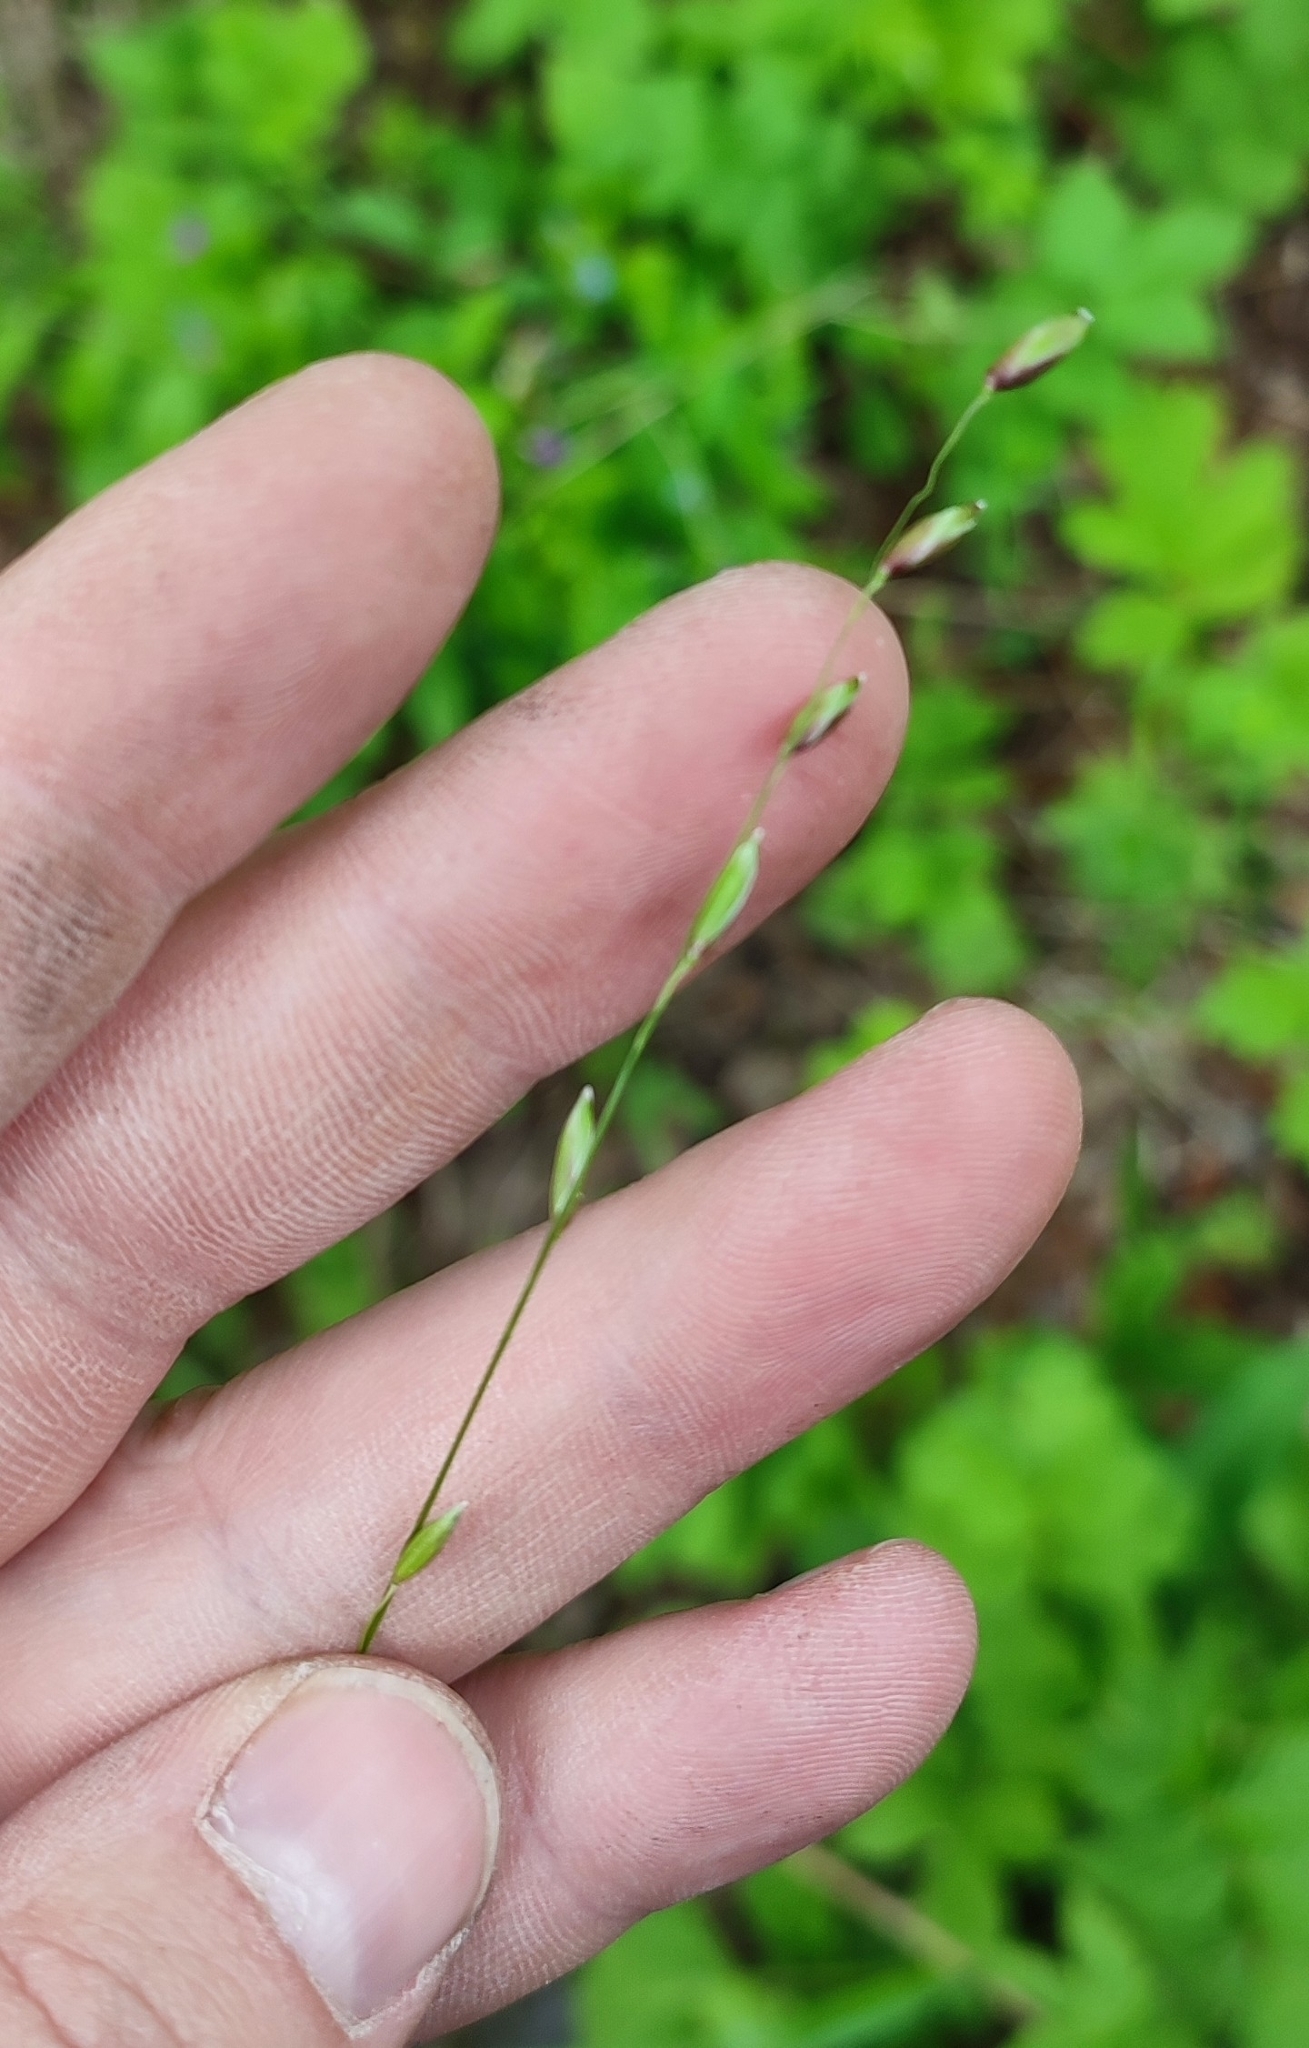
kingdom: Plantae
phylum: Tracheophyta
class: Liliopsida
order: Poales
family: Poaceae
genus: Melica
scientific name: Melica nutans
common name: Mountain melick
